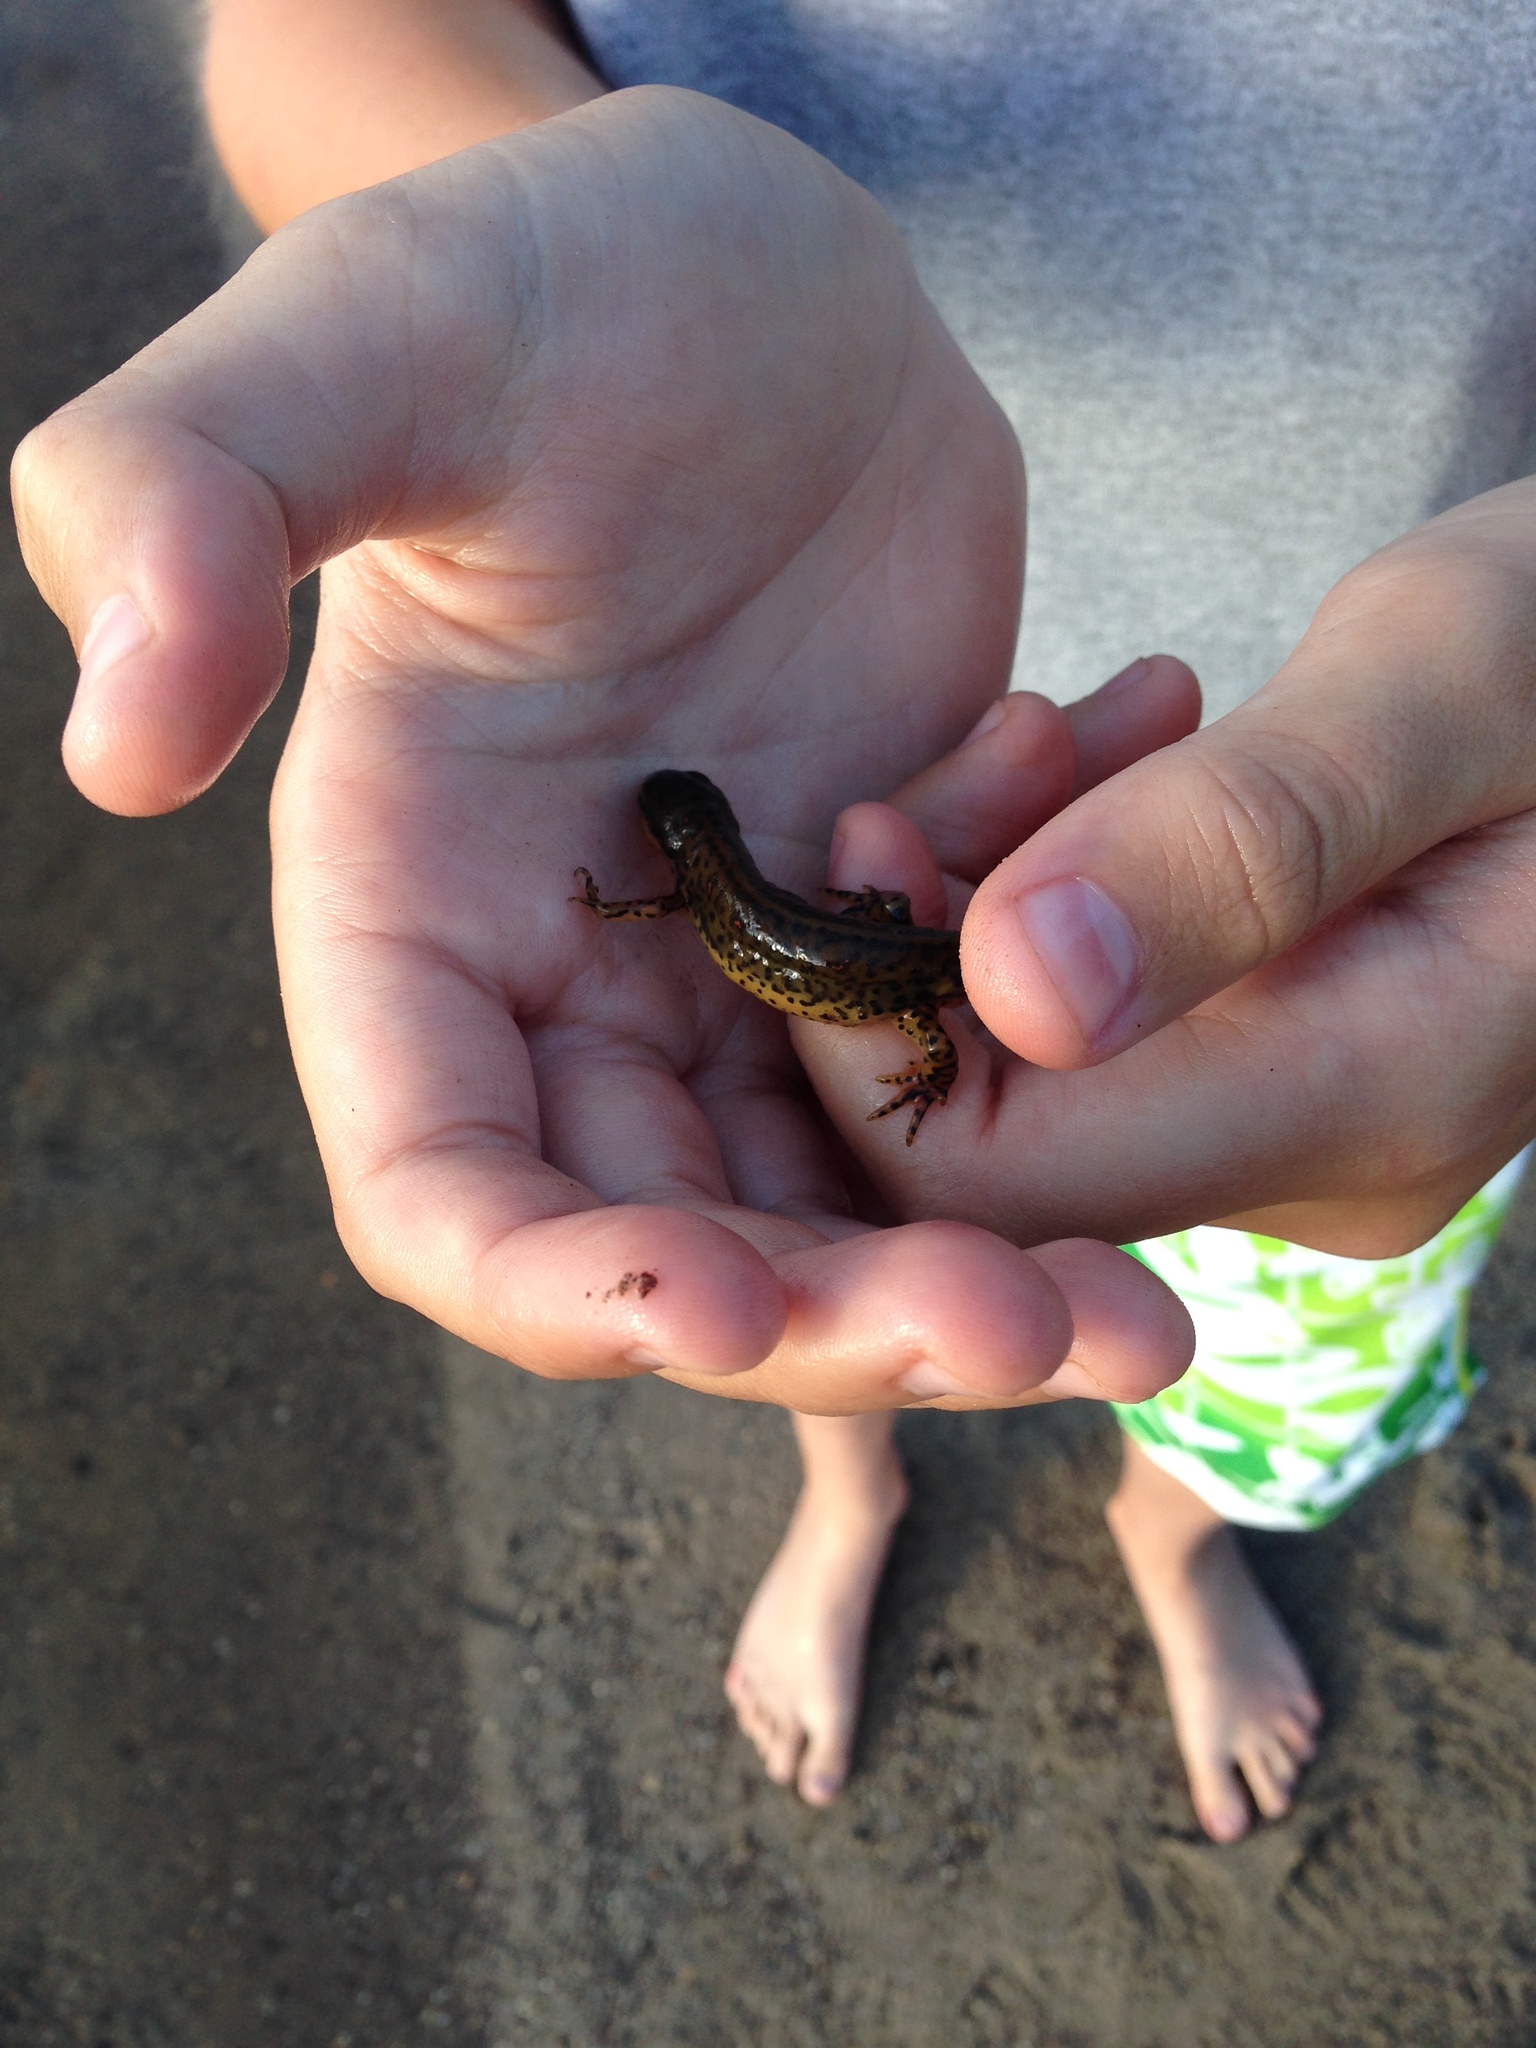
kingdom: Animalia
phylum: Chordata
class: Amphibia
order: Caudata
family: Salamandridae
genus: Notophthalmus
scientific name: Notophthalmus viridescens
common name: Eastern newt
